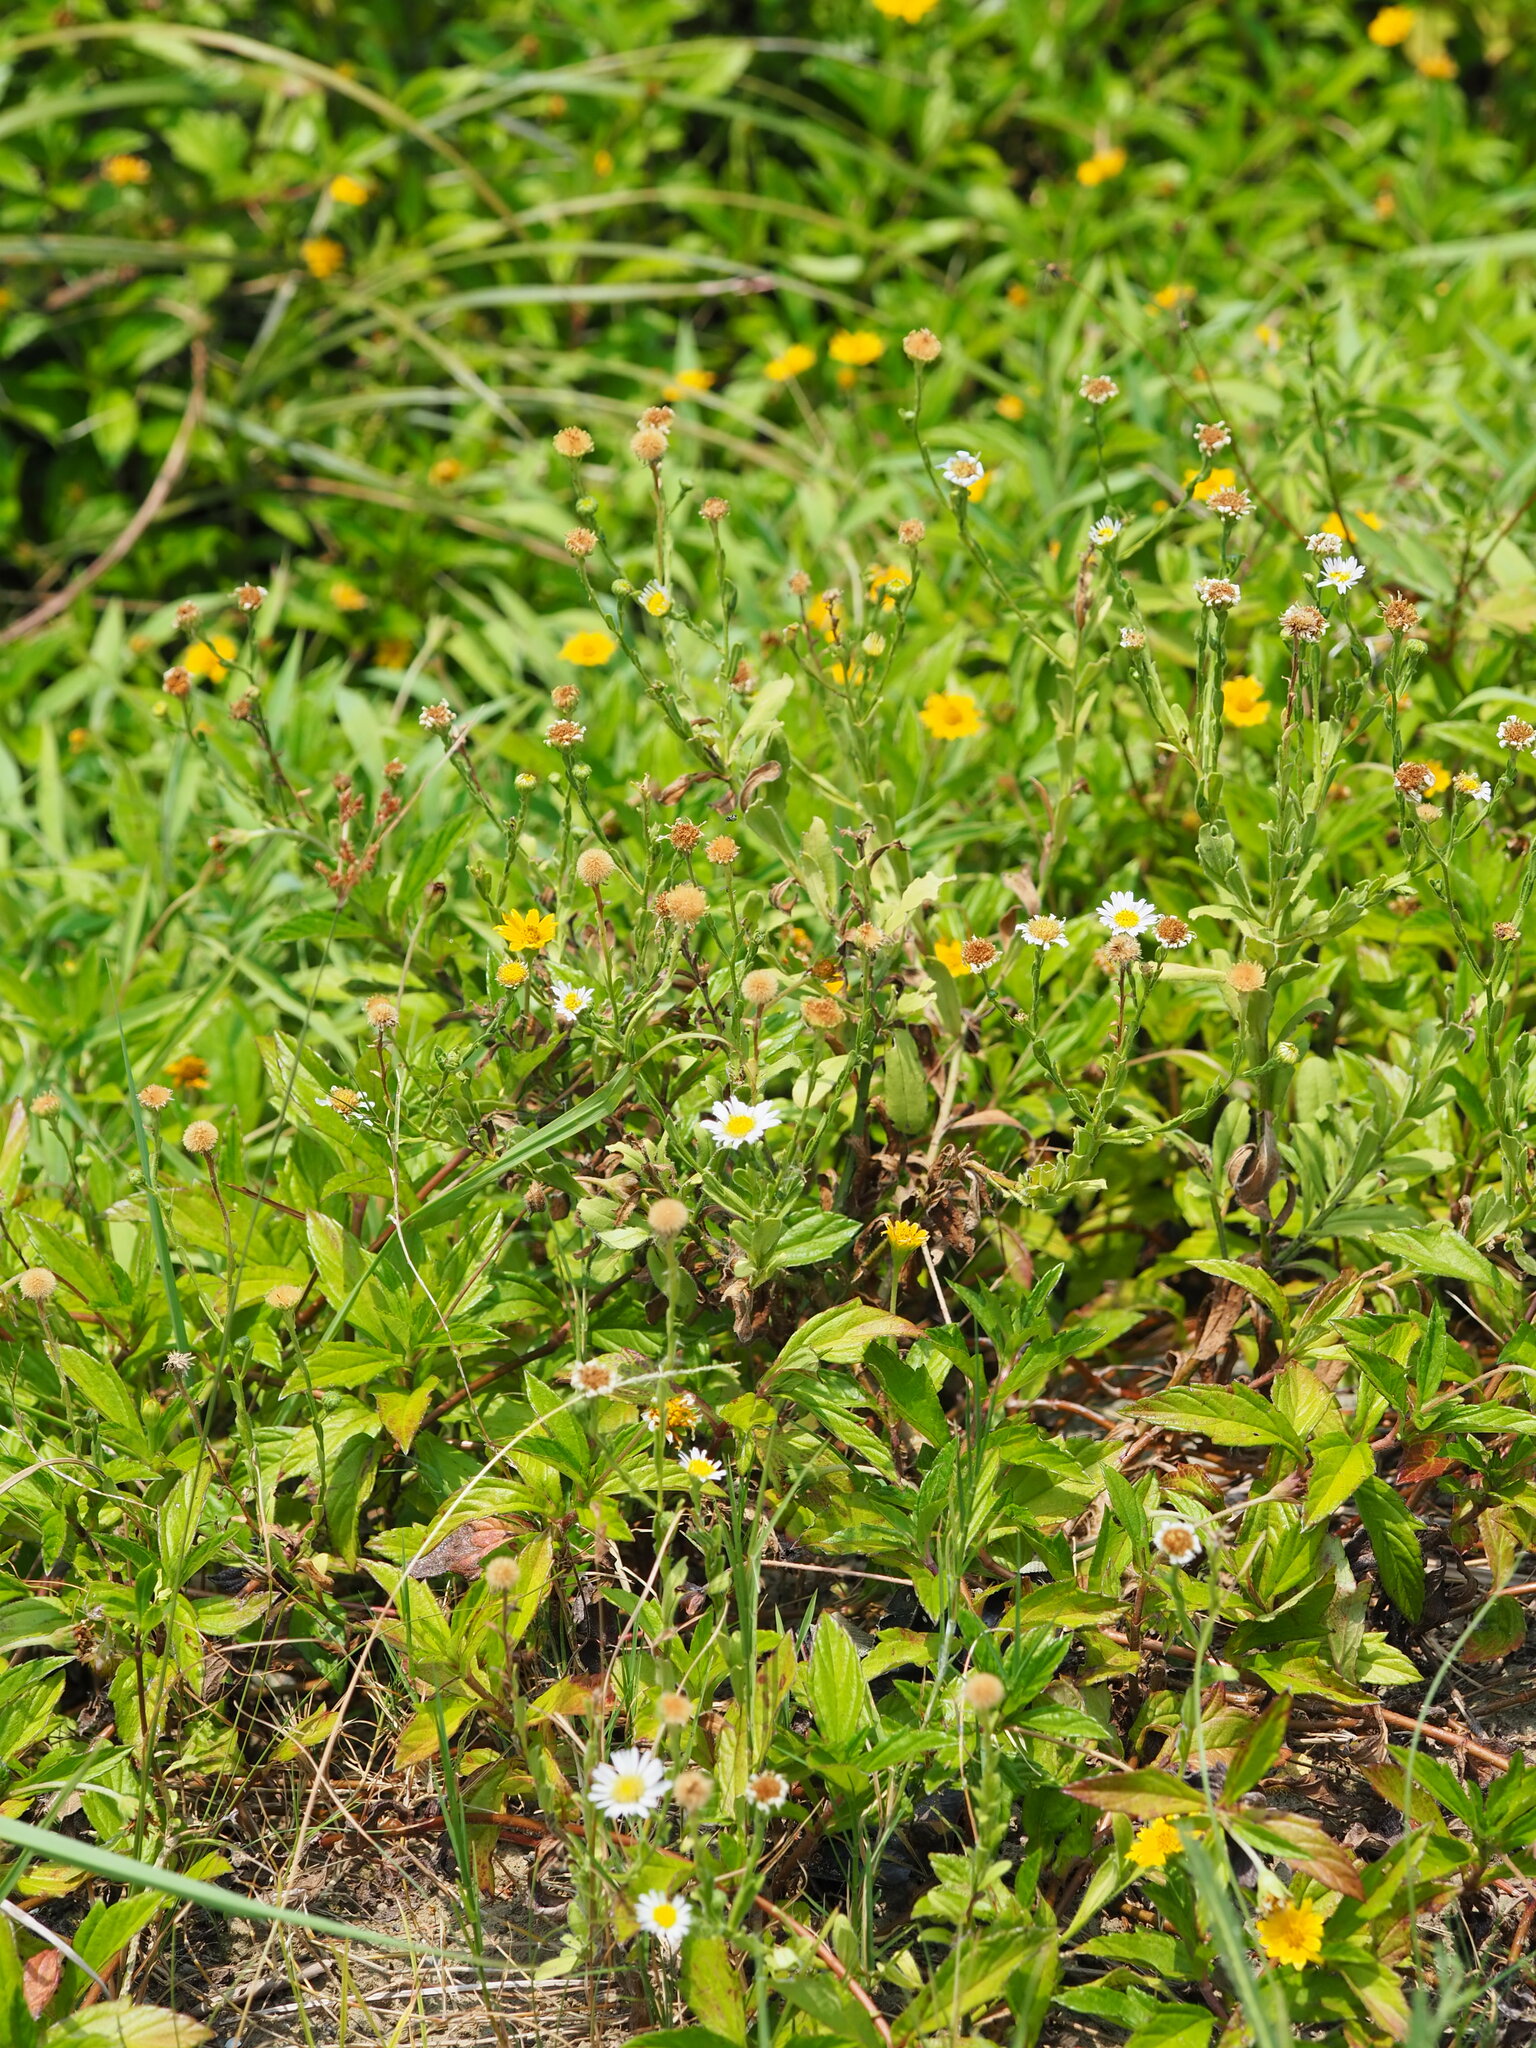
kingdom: Plantae
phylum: Tracheophyta
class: Magnoliopsida
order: Asterales
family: Asteraceae
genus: Heteropappus
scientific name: Heteropappus oldhamii
